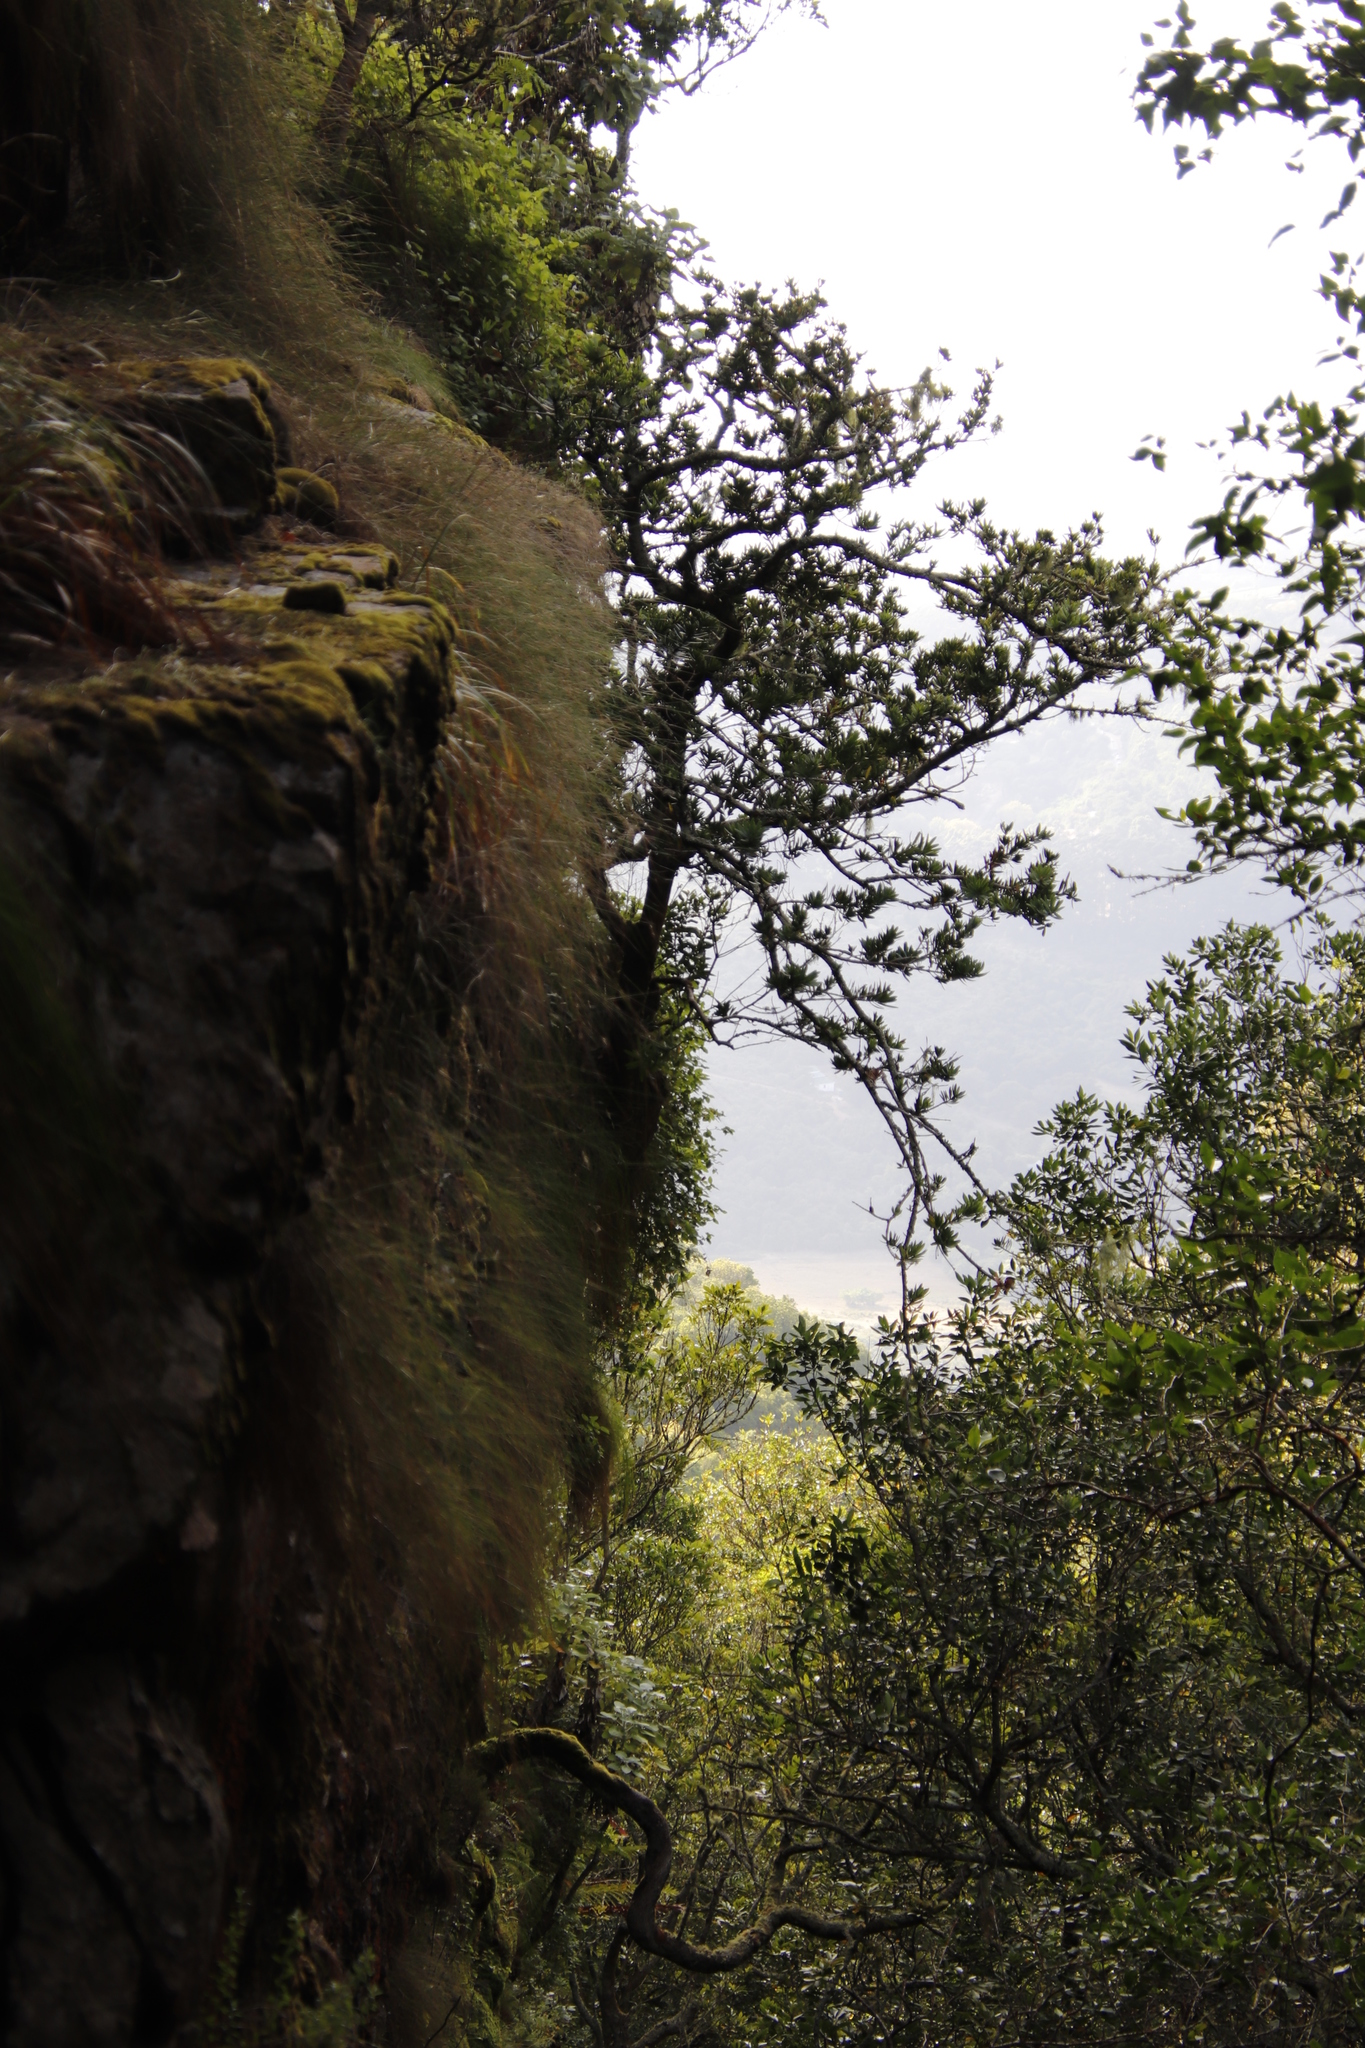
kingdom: Plantae
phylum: Tracheophyta
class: Pinopsida
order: Pinales
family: Podocarpaceae
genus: Podocarpus
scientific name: Podocarpus latifolius
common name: True yellowwood
